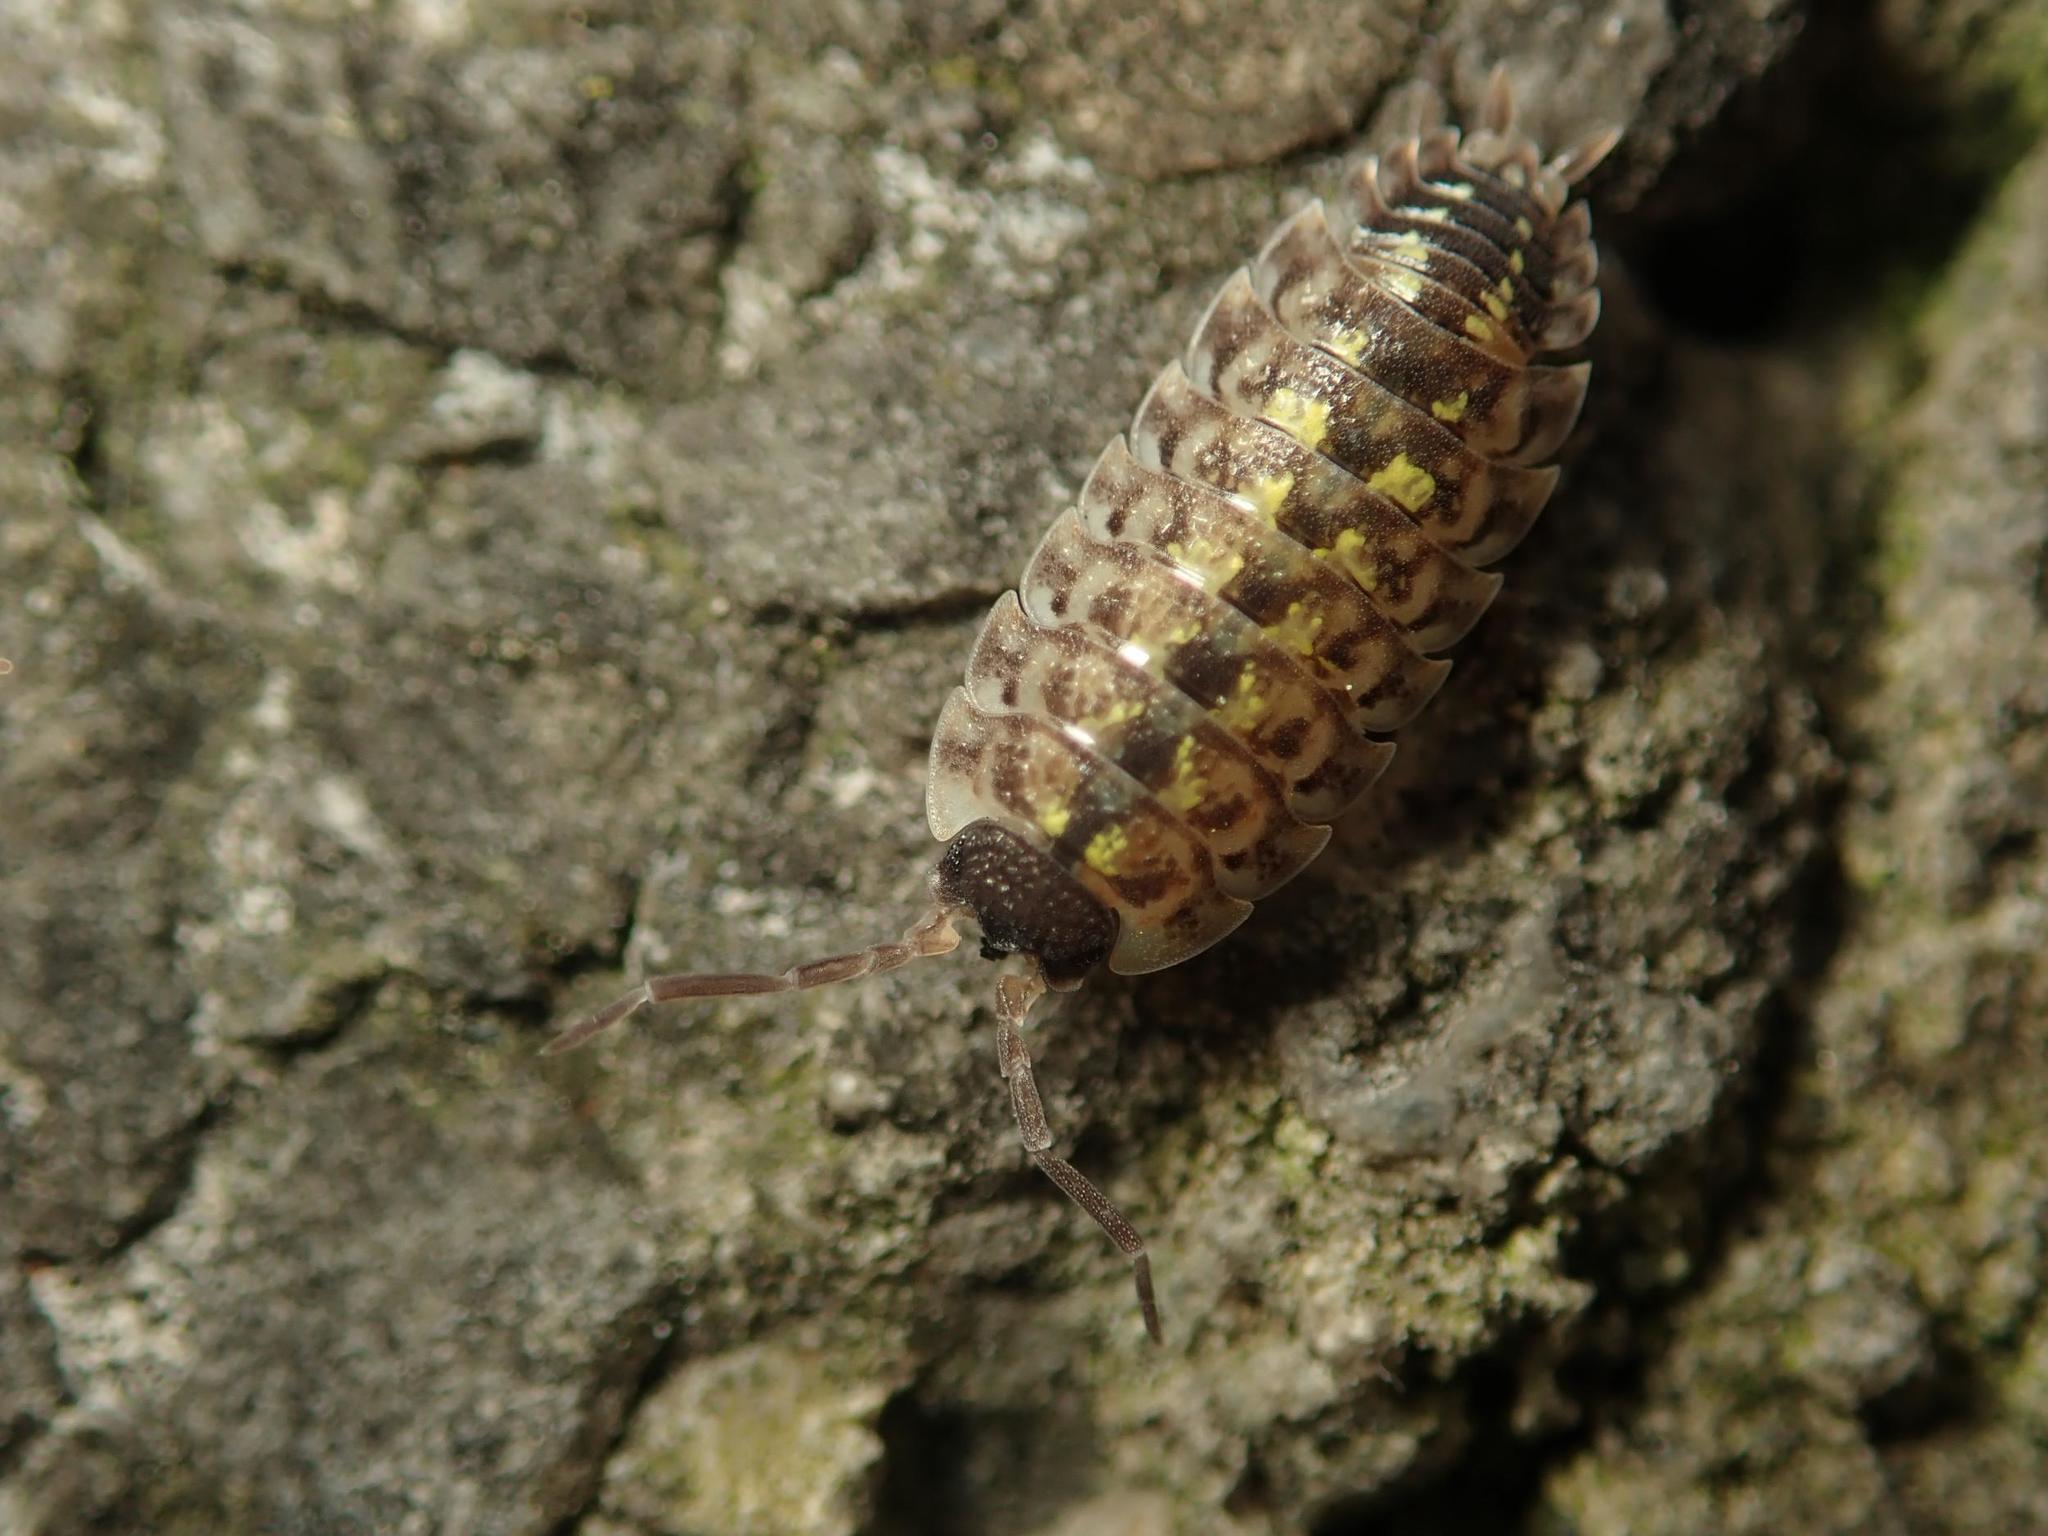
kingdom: Animalia
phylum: Arthropoda
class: Malacostraca
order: Isopoda
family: Porcellionidae
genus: Porcellio
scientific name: Porcellio spinicornis
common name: Painted woodlouse
